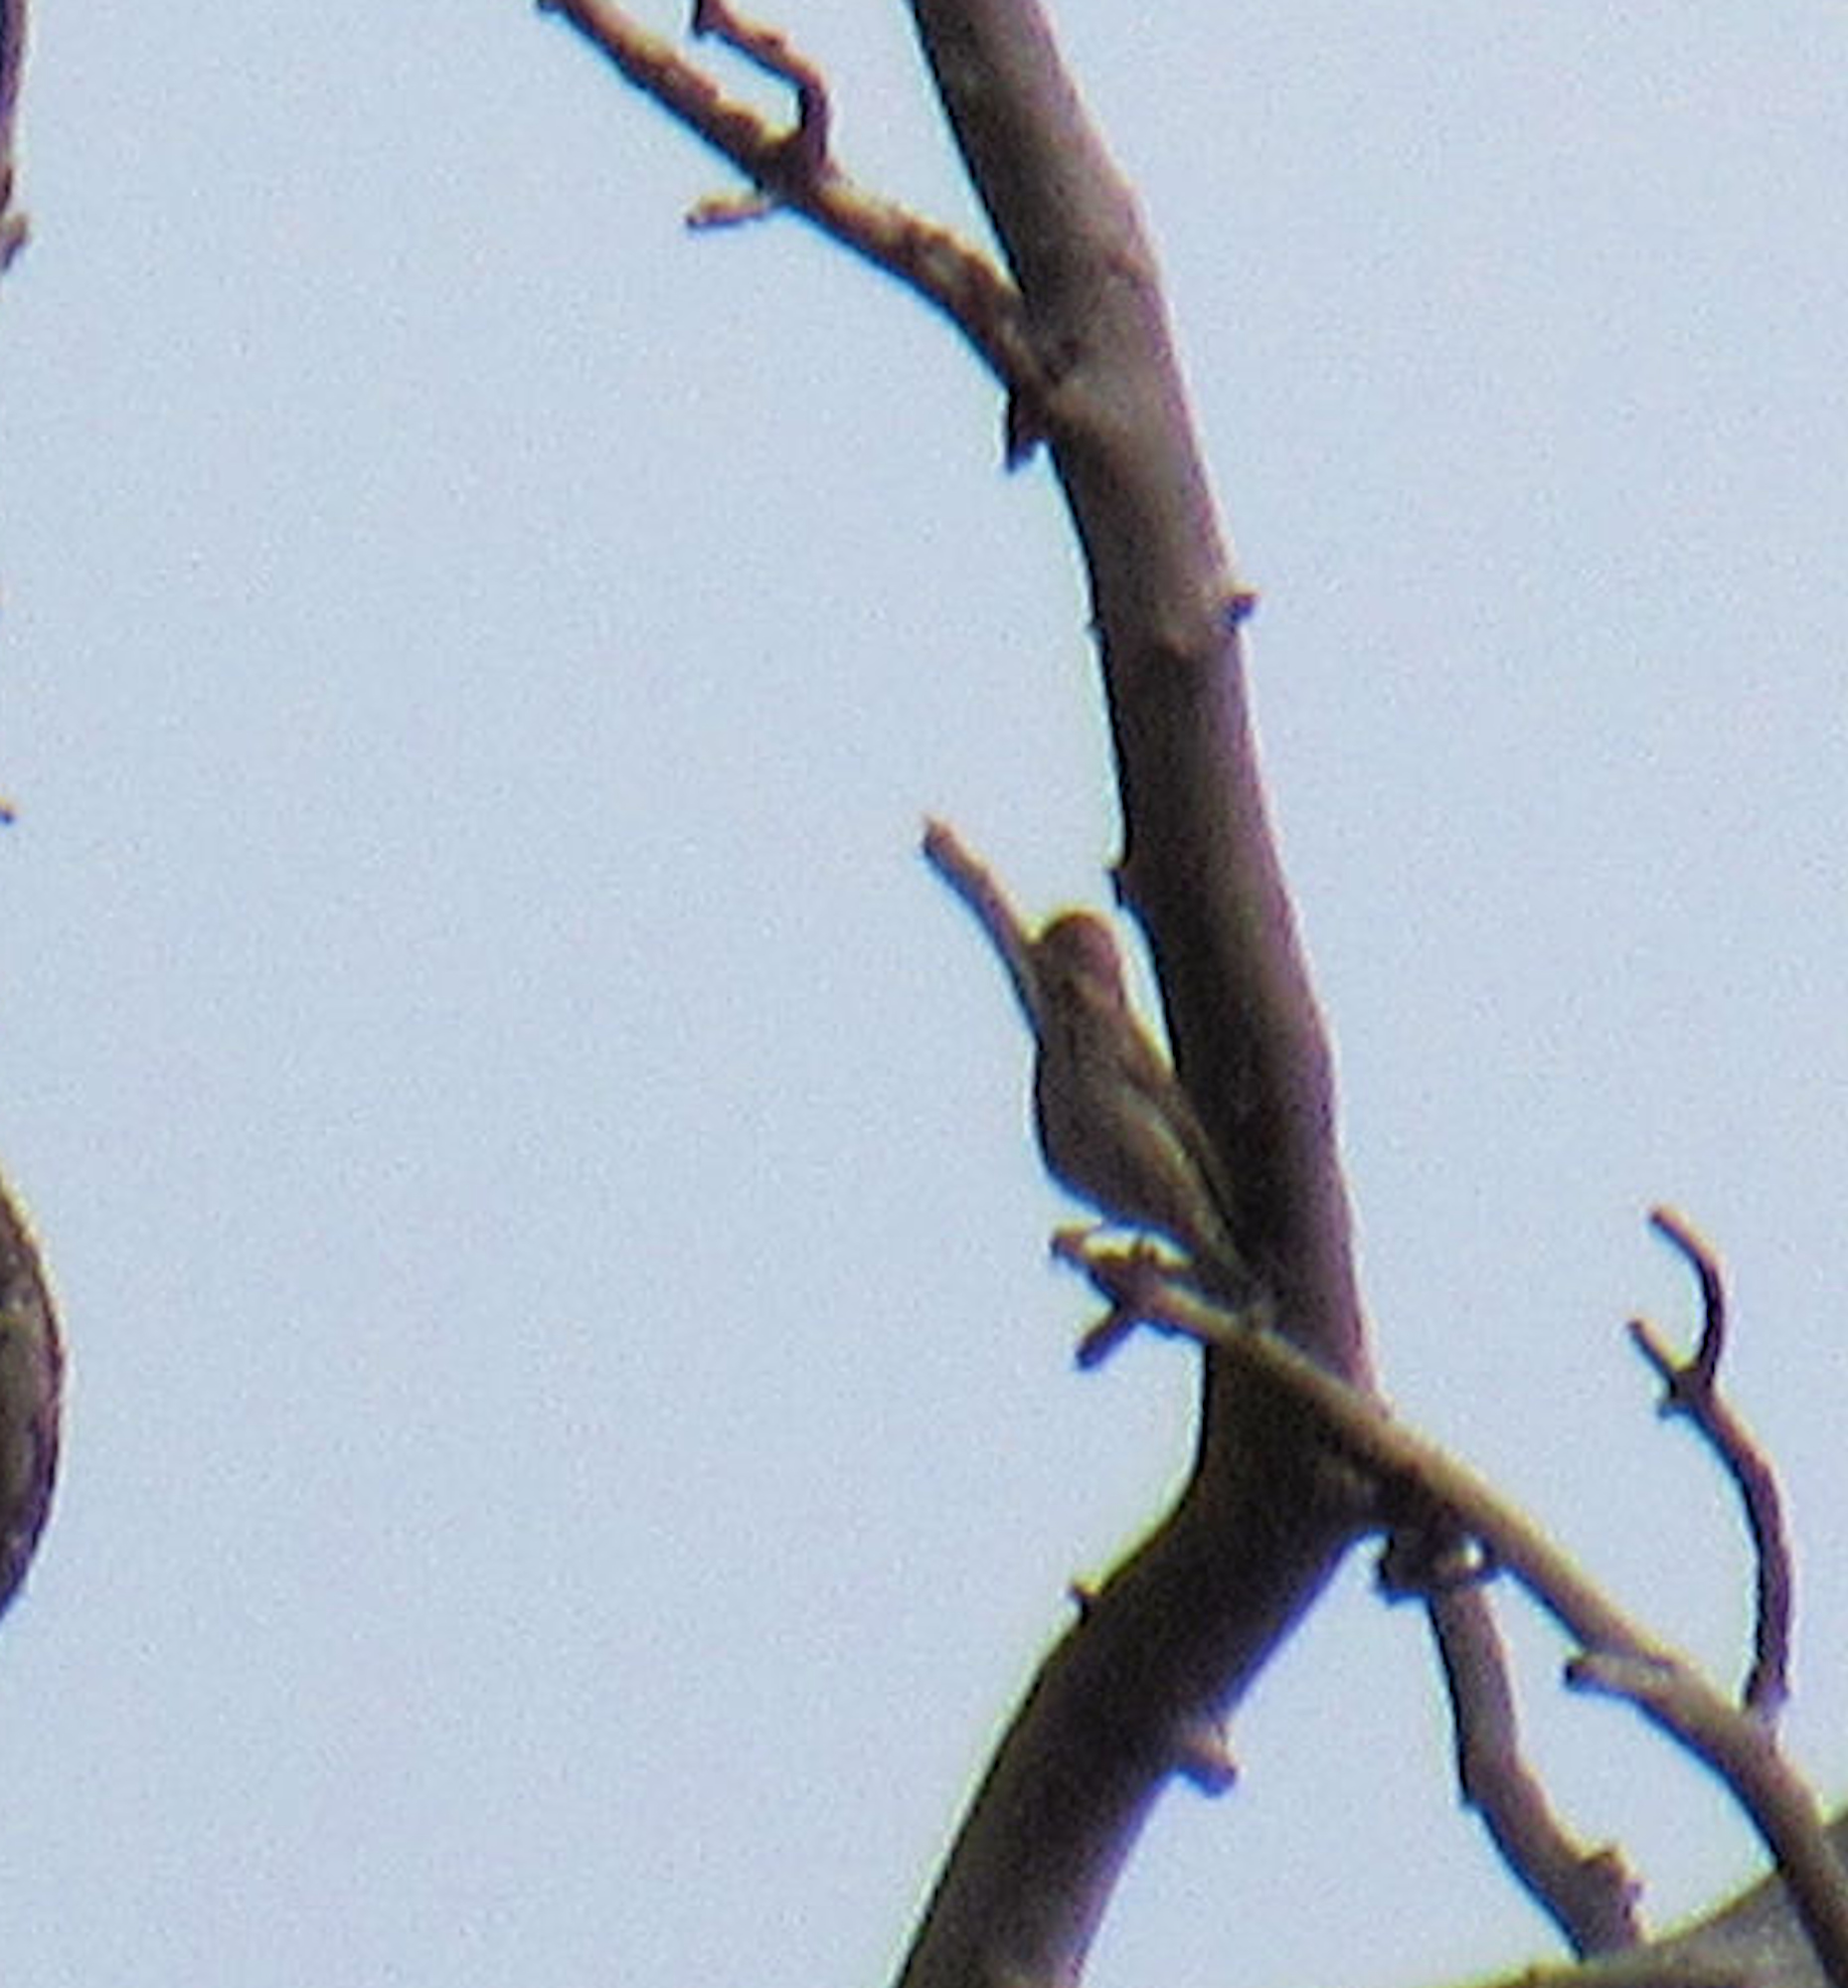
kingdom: Animalia
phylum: Chordata
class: Aves
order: Passeriformes
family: Fringillidae
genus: Haemorhous
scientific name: Haemorhous cassinii
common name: Cassin's finch
